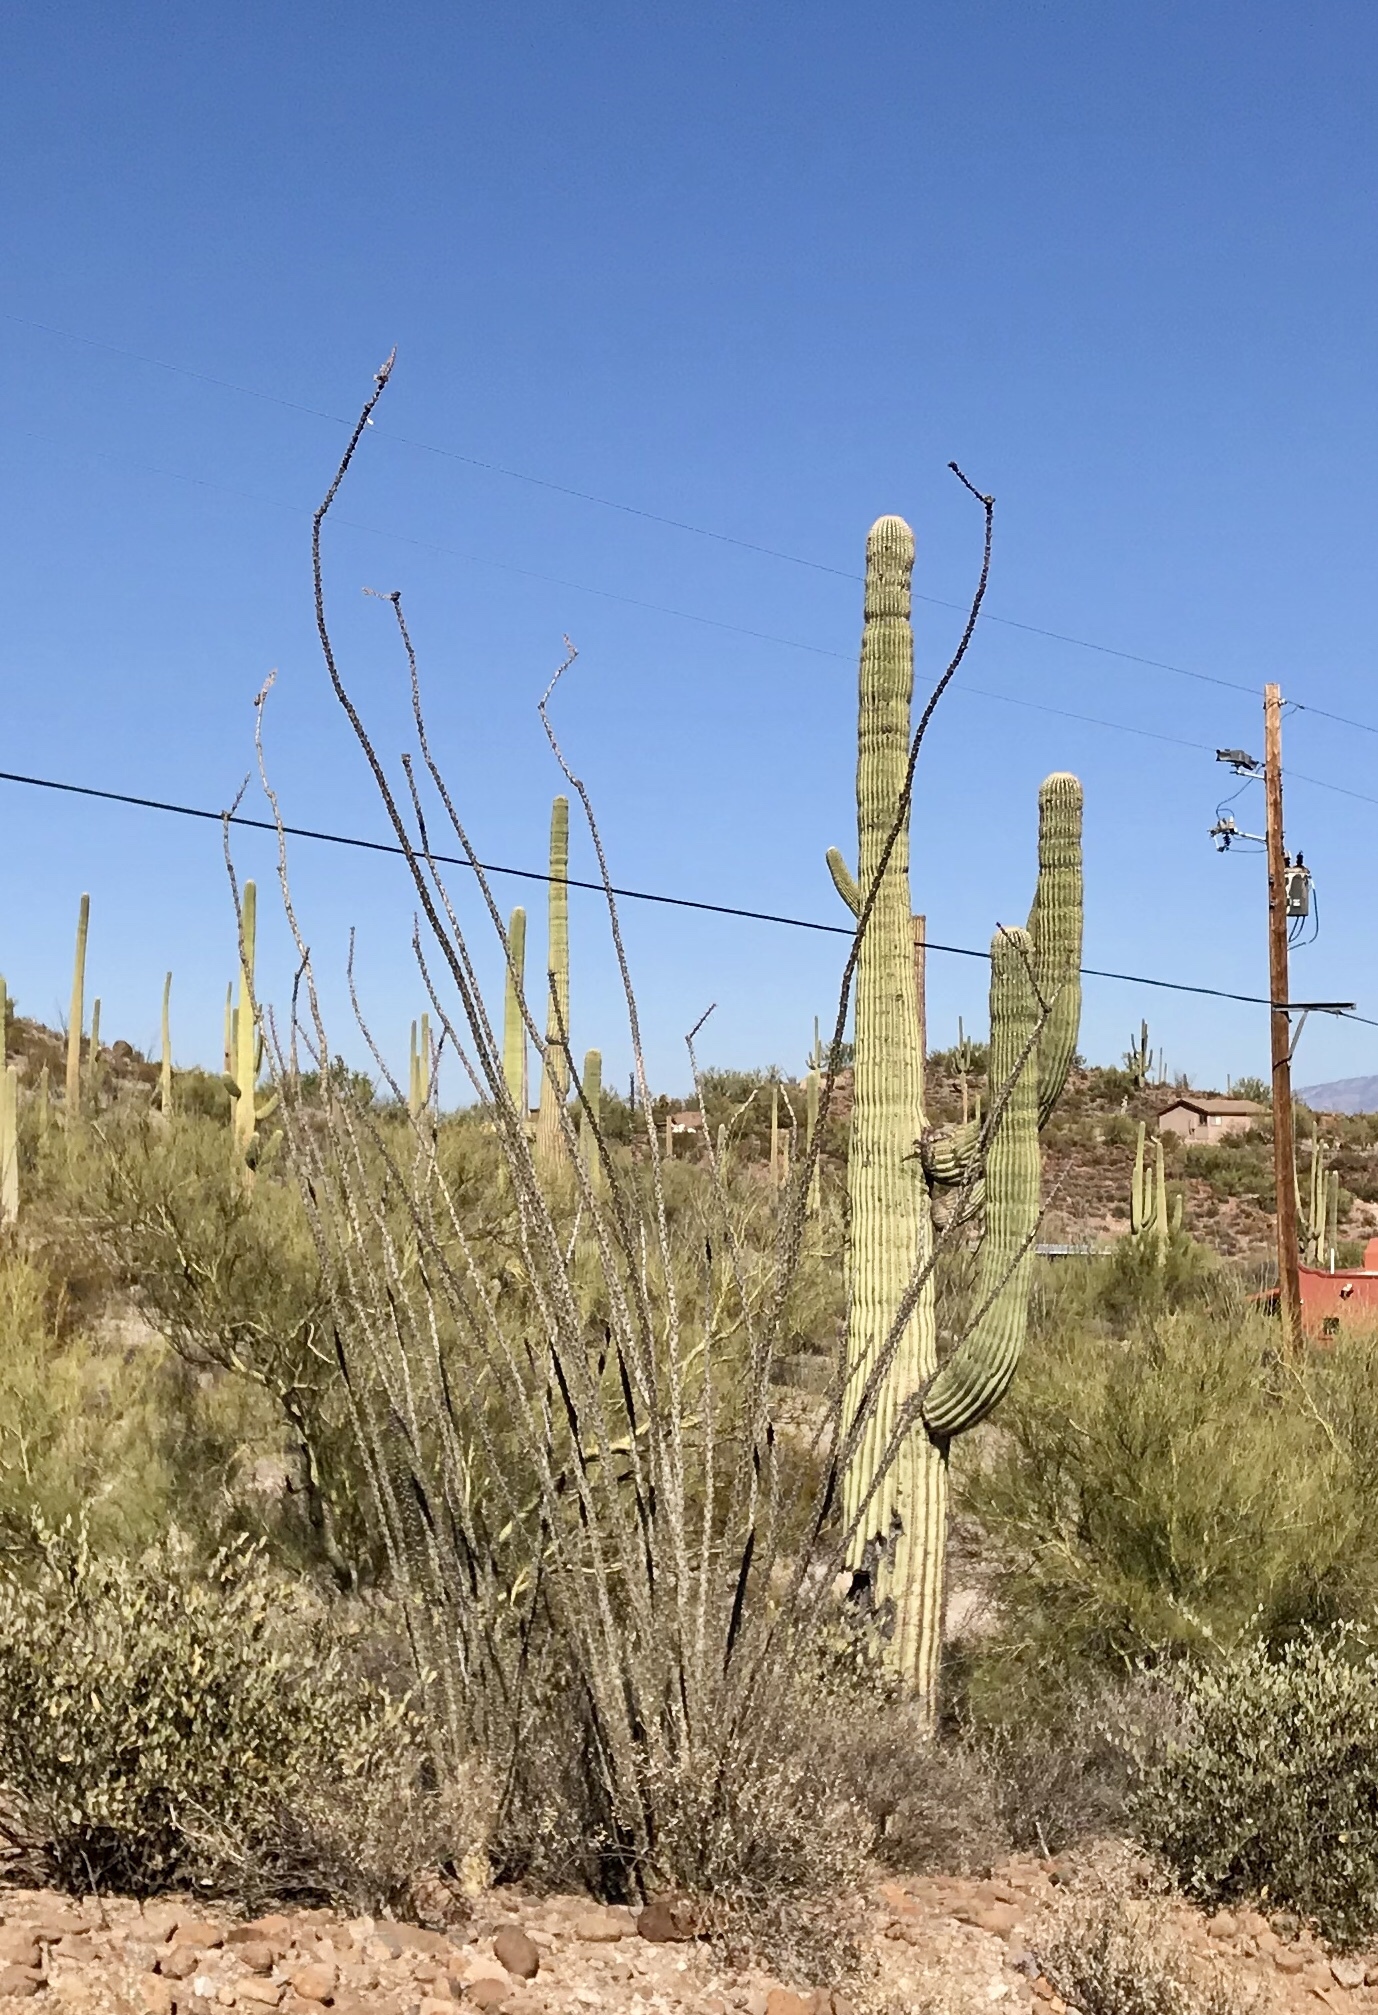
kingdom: Plantae
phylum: Tracheophyta
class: Magnoliopsida
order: Ericales
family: Fouquieriaceae
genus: Fouquieria
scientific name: Fouquieria splendens
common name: Vine-cactus
